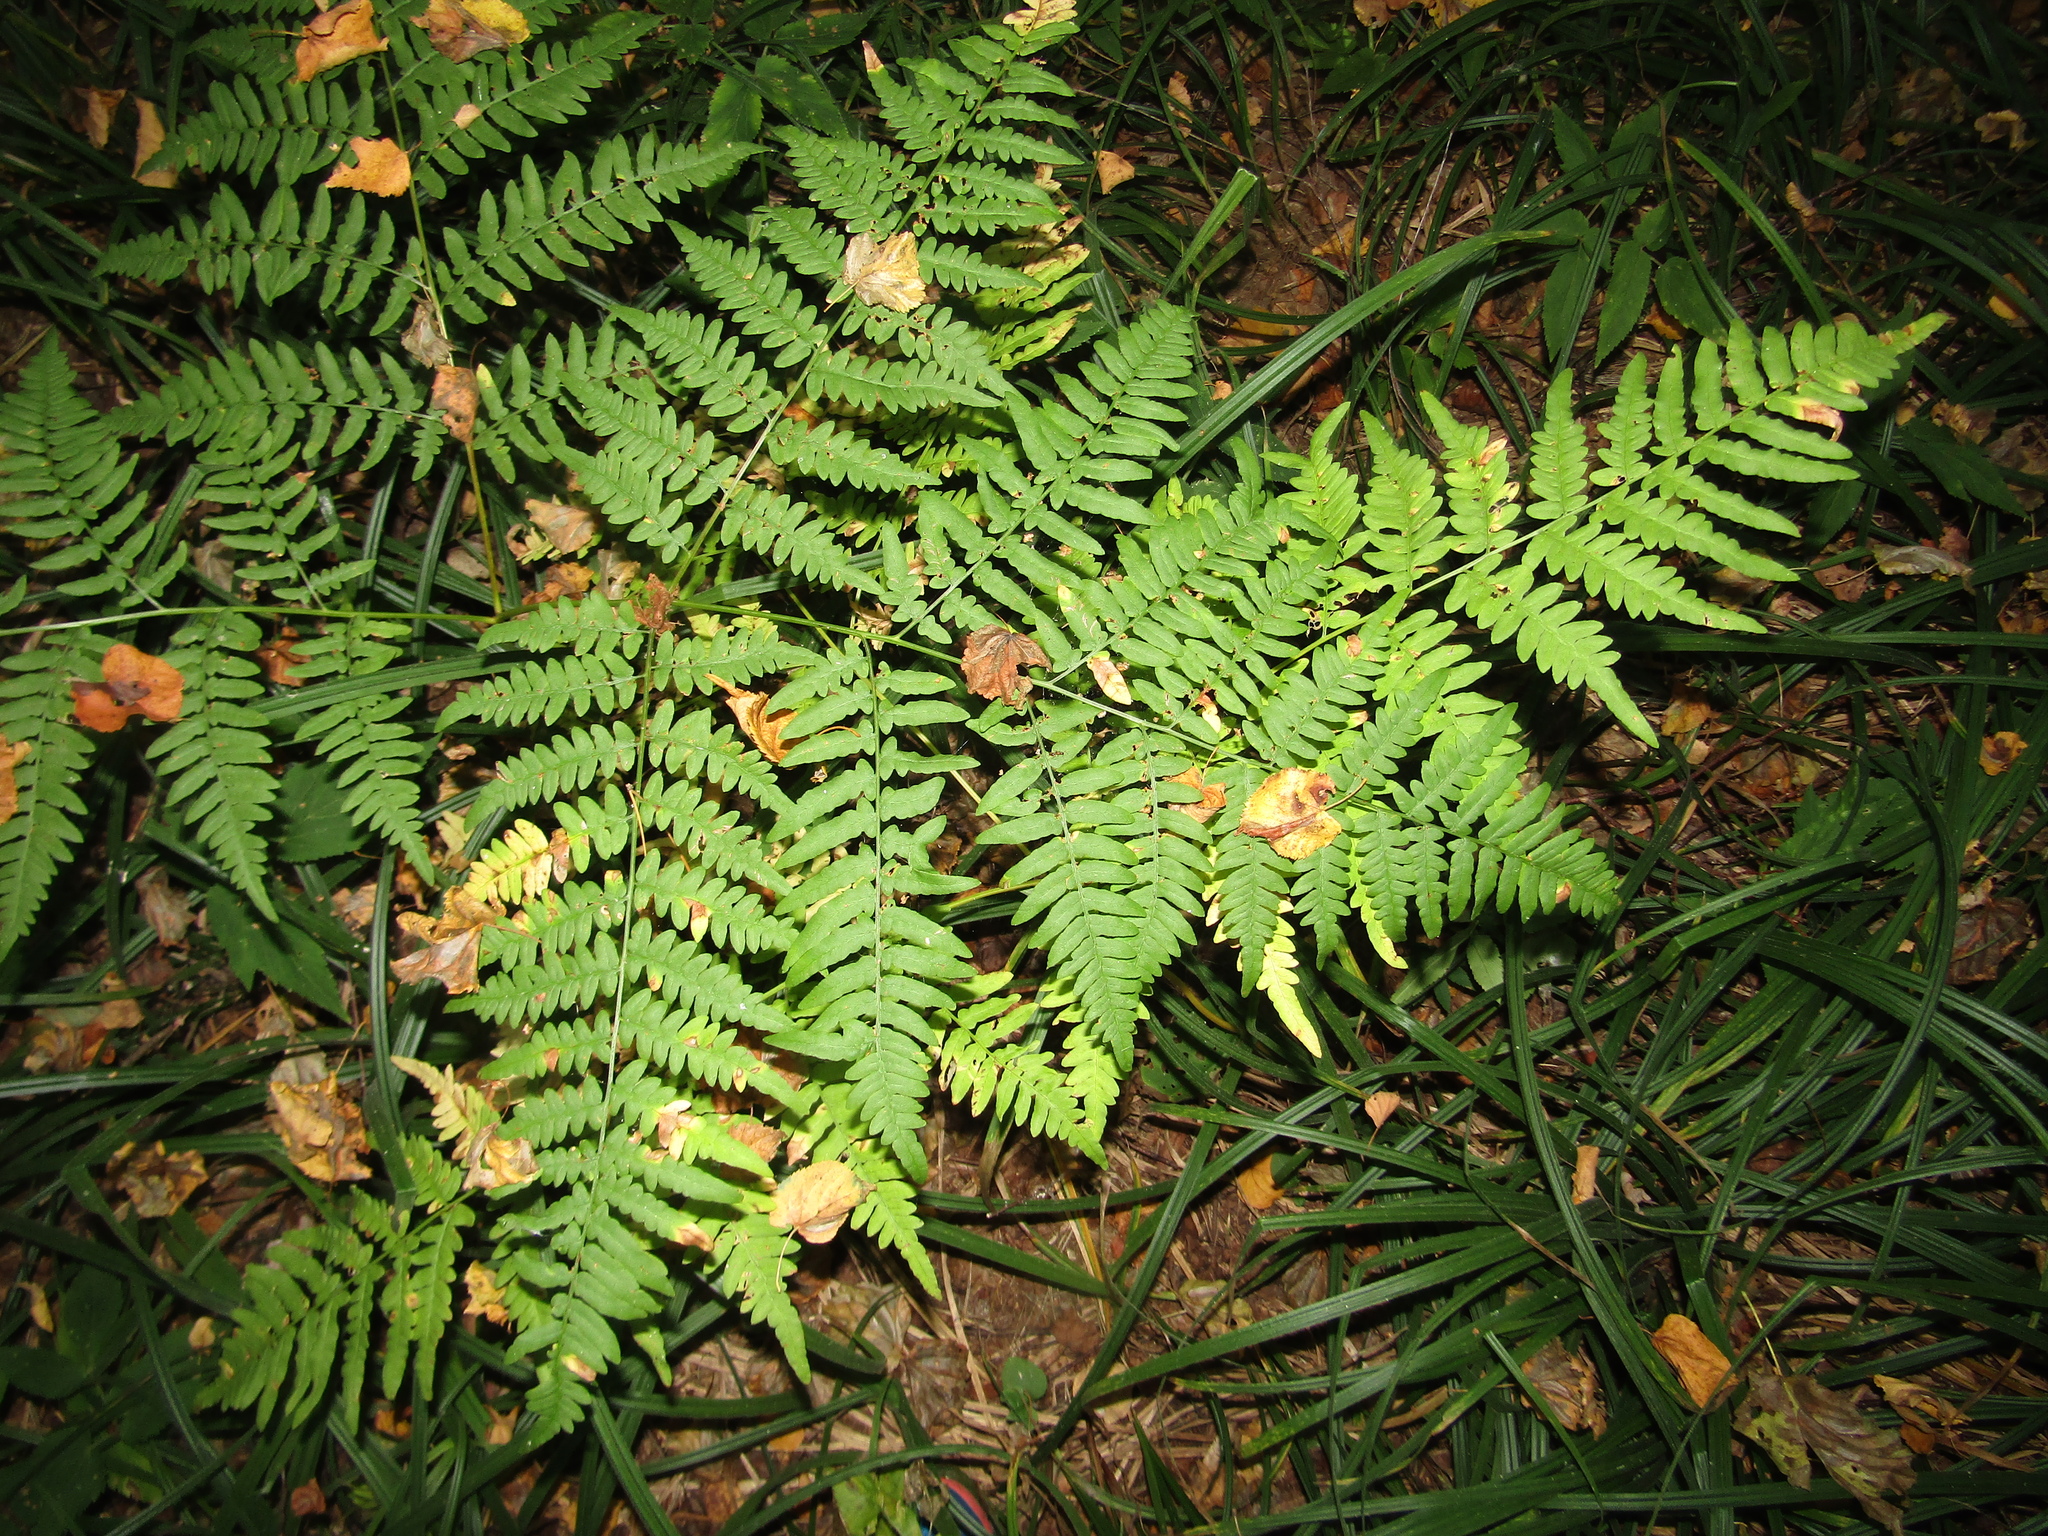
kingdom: Plantae
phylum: Tracheophyta
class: Polypodiopsida
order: Polypodiales
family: Dennstaedtiaceae
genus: Pteridium
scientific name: Pteridium aquilinum
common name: Bracken
